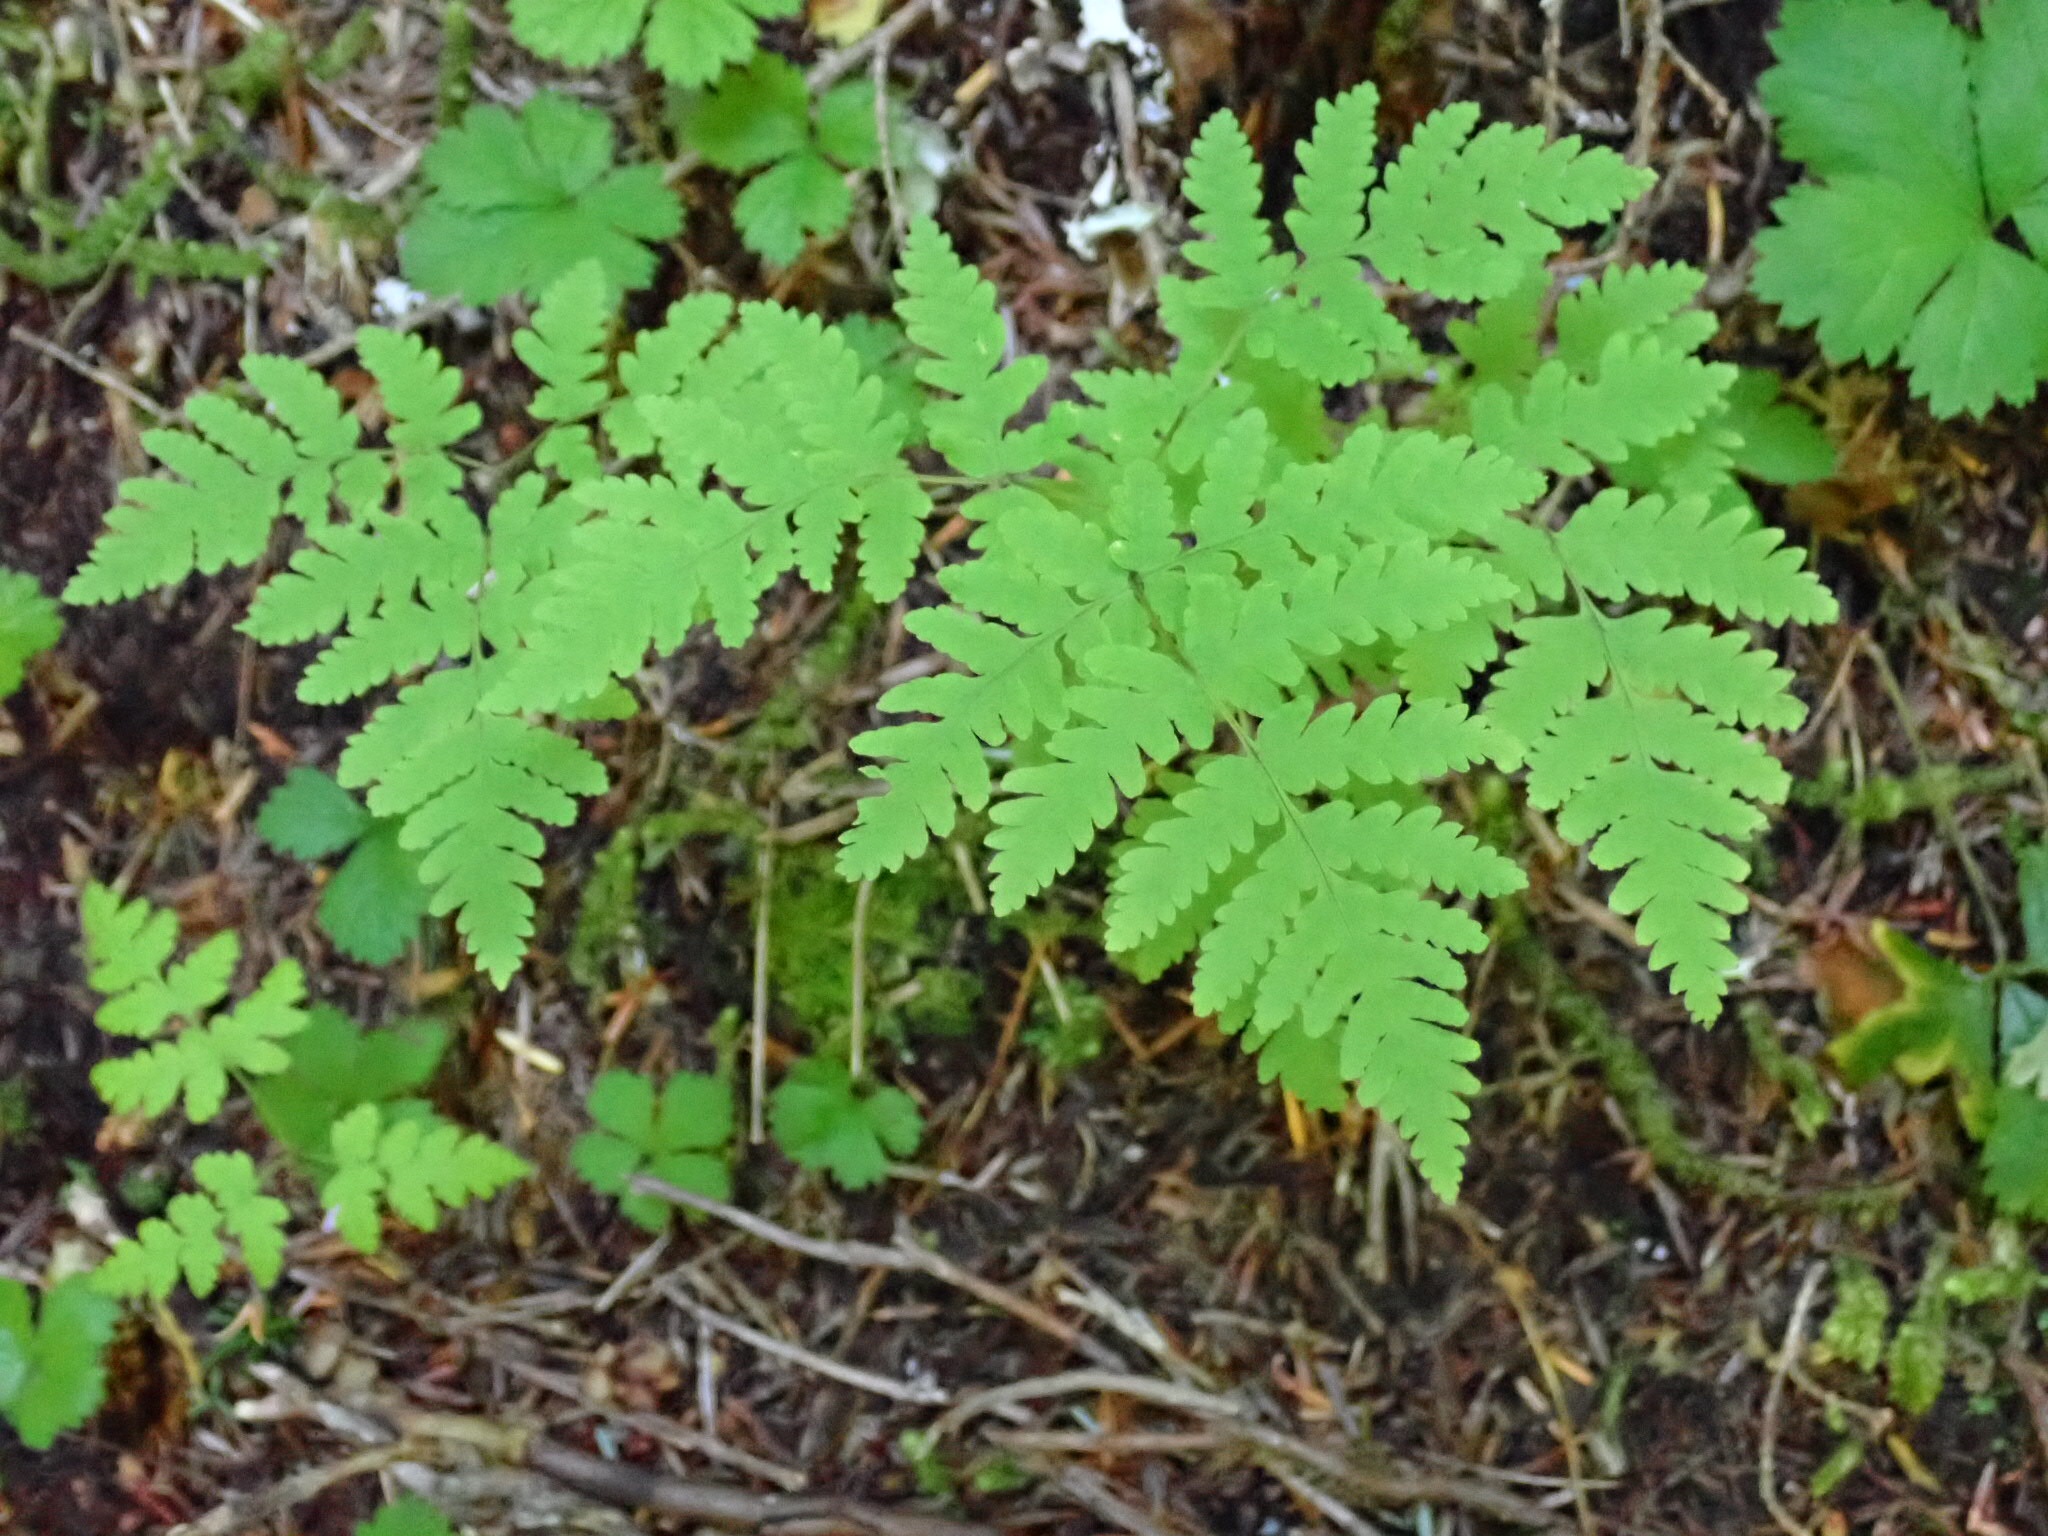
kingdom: Plantae
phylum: Tracheophyta
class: Polypodiopsida
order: Polypodiales
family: Cystopteridaceae
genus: Gymnocarpium
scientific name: Gymnocarpium disjunctum
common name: Western oak fern
